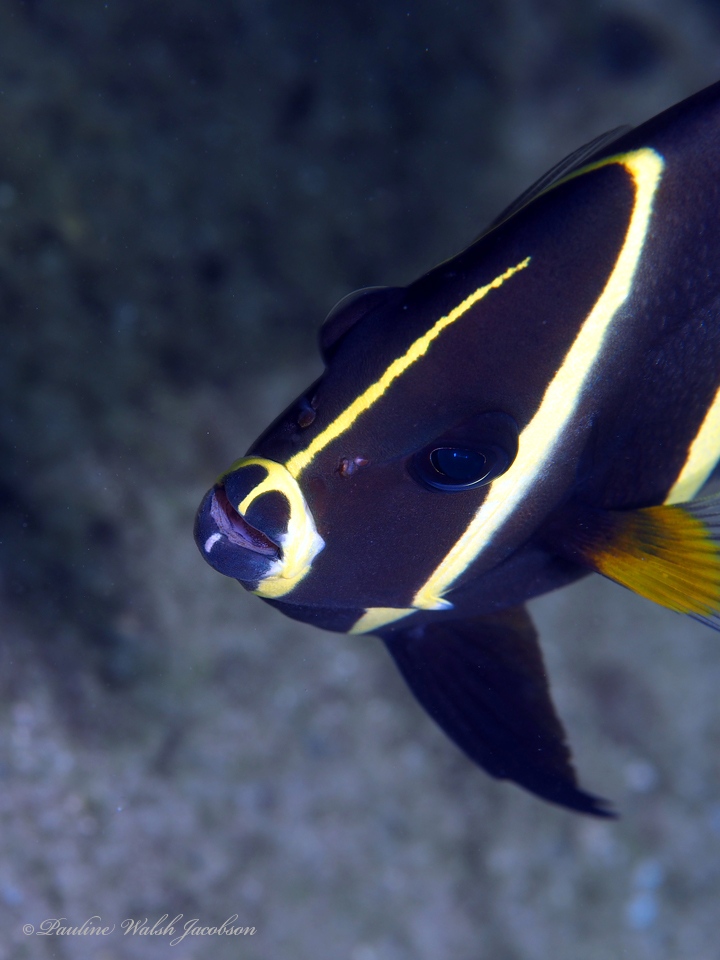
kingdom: Animalia
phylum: Chordata
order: Perciformes
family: Pomacanthidae
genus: Pomacanthus
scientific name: Pomacanthus arcuatus
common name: Gray angelfish
